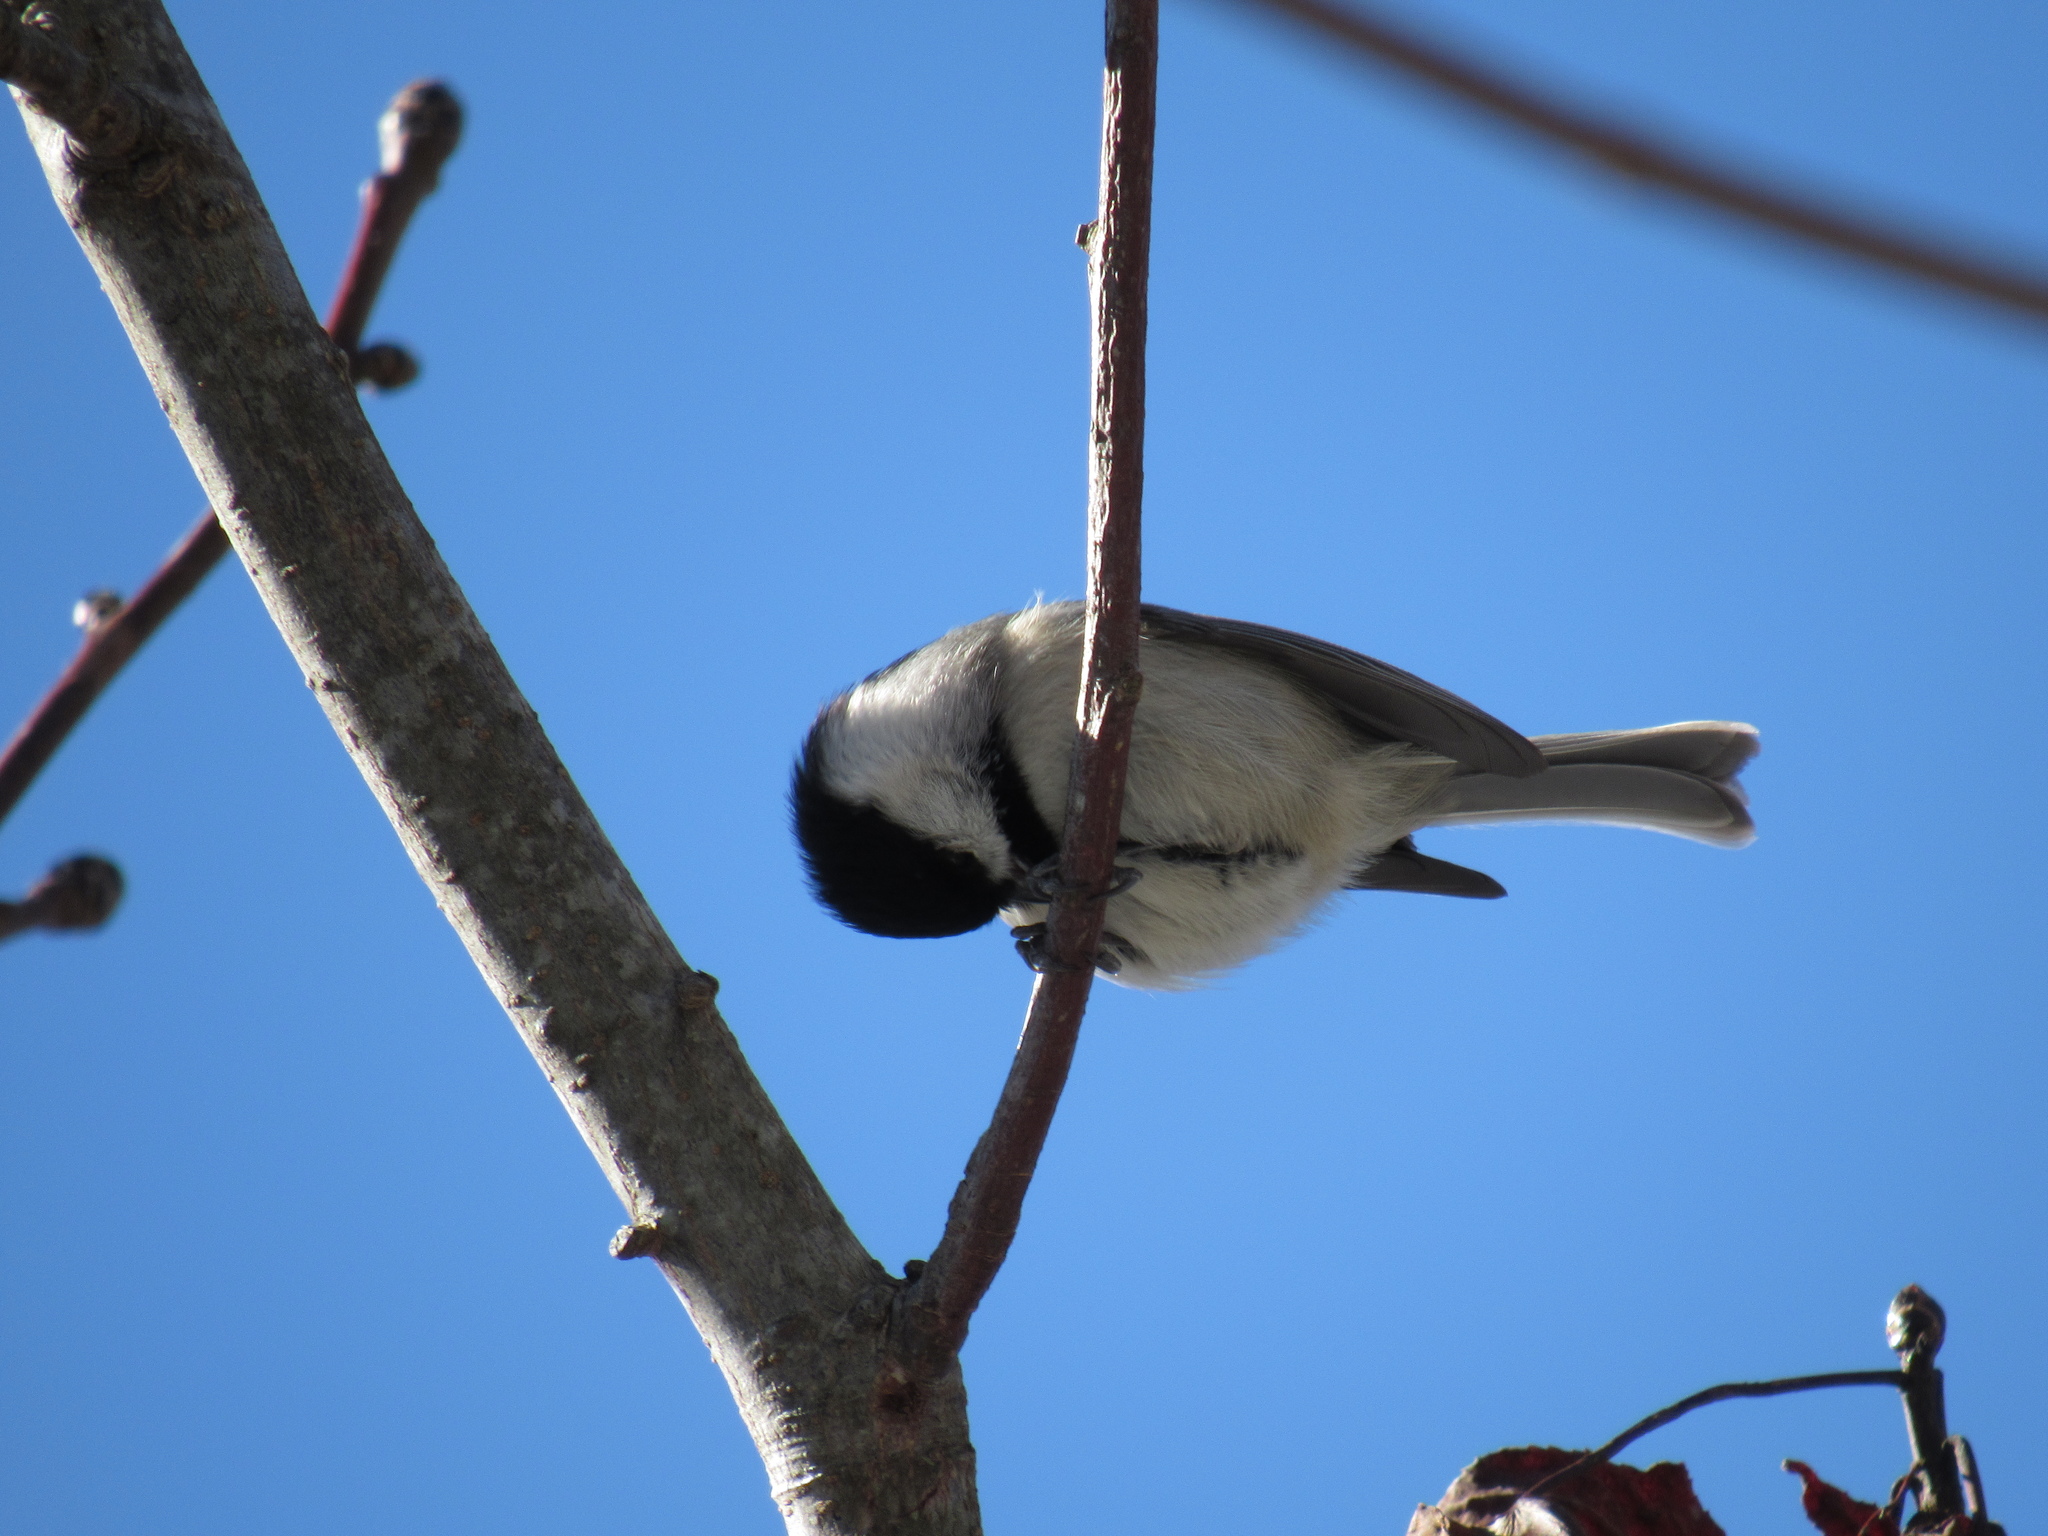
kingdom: Animalia
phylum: Chordata
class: Aves
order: Passeriformes
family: Paridae
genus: Poecile
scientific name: Poecile carolinensis
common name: Carolina chickadee
